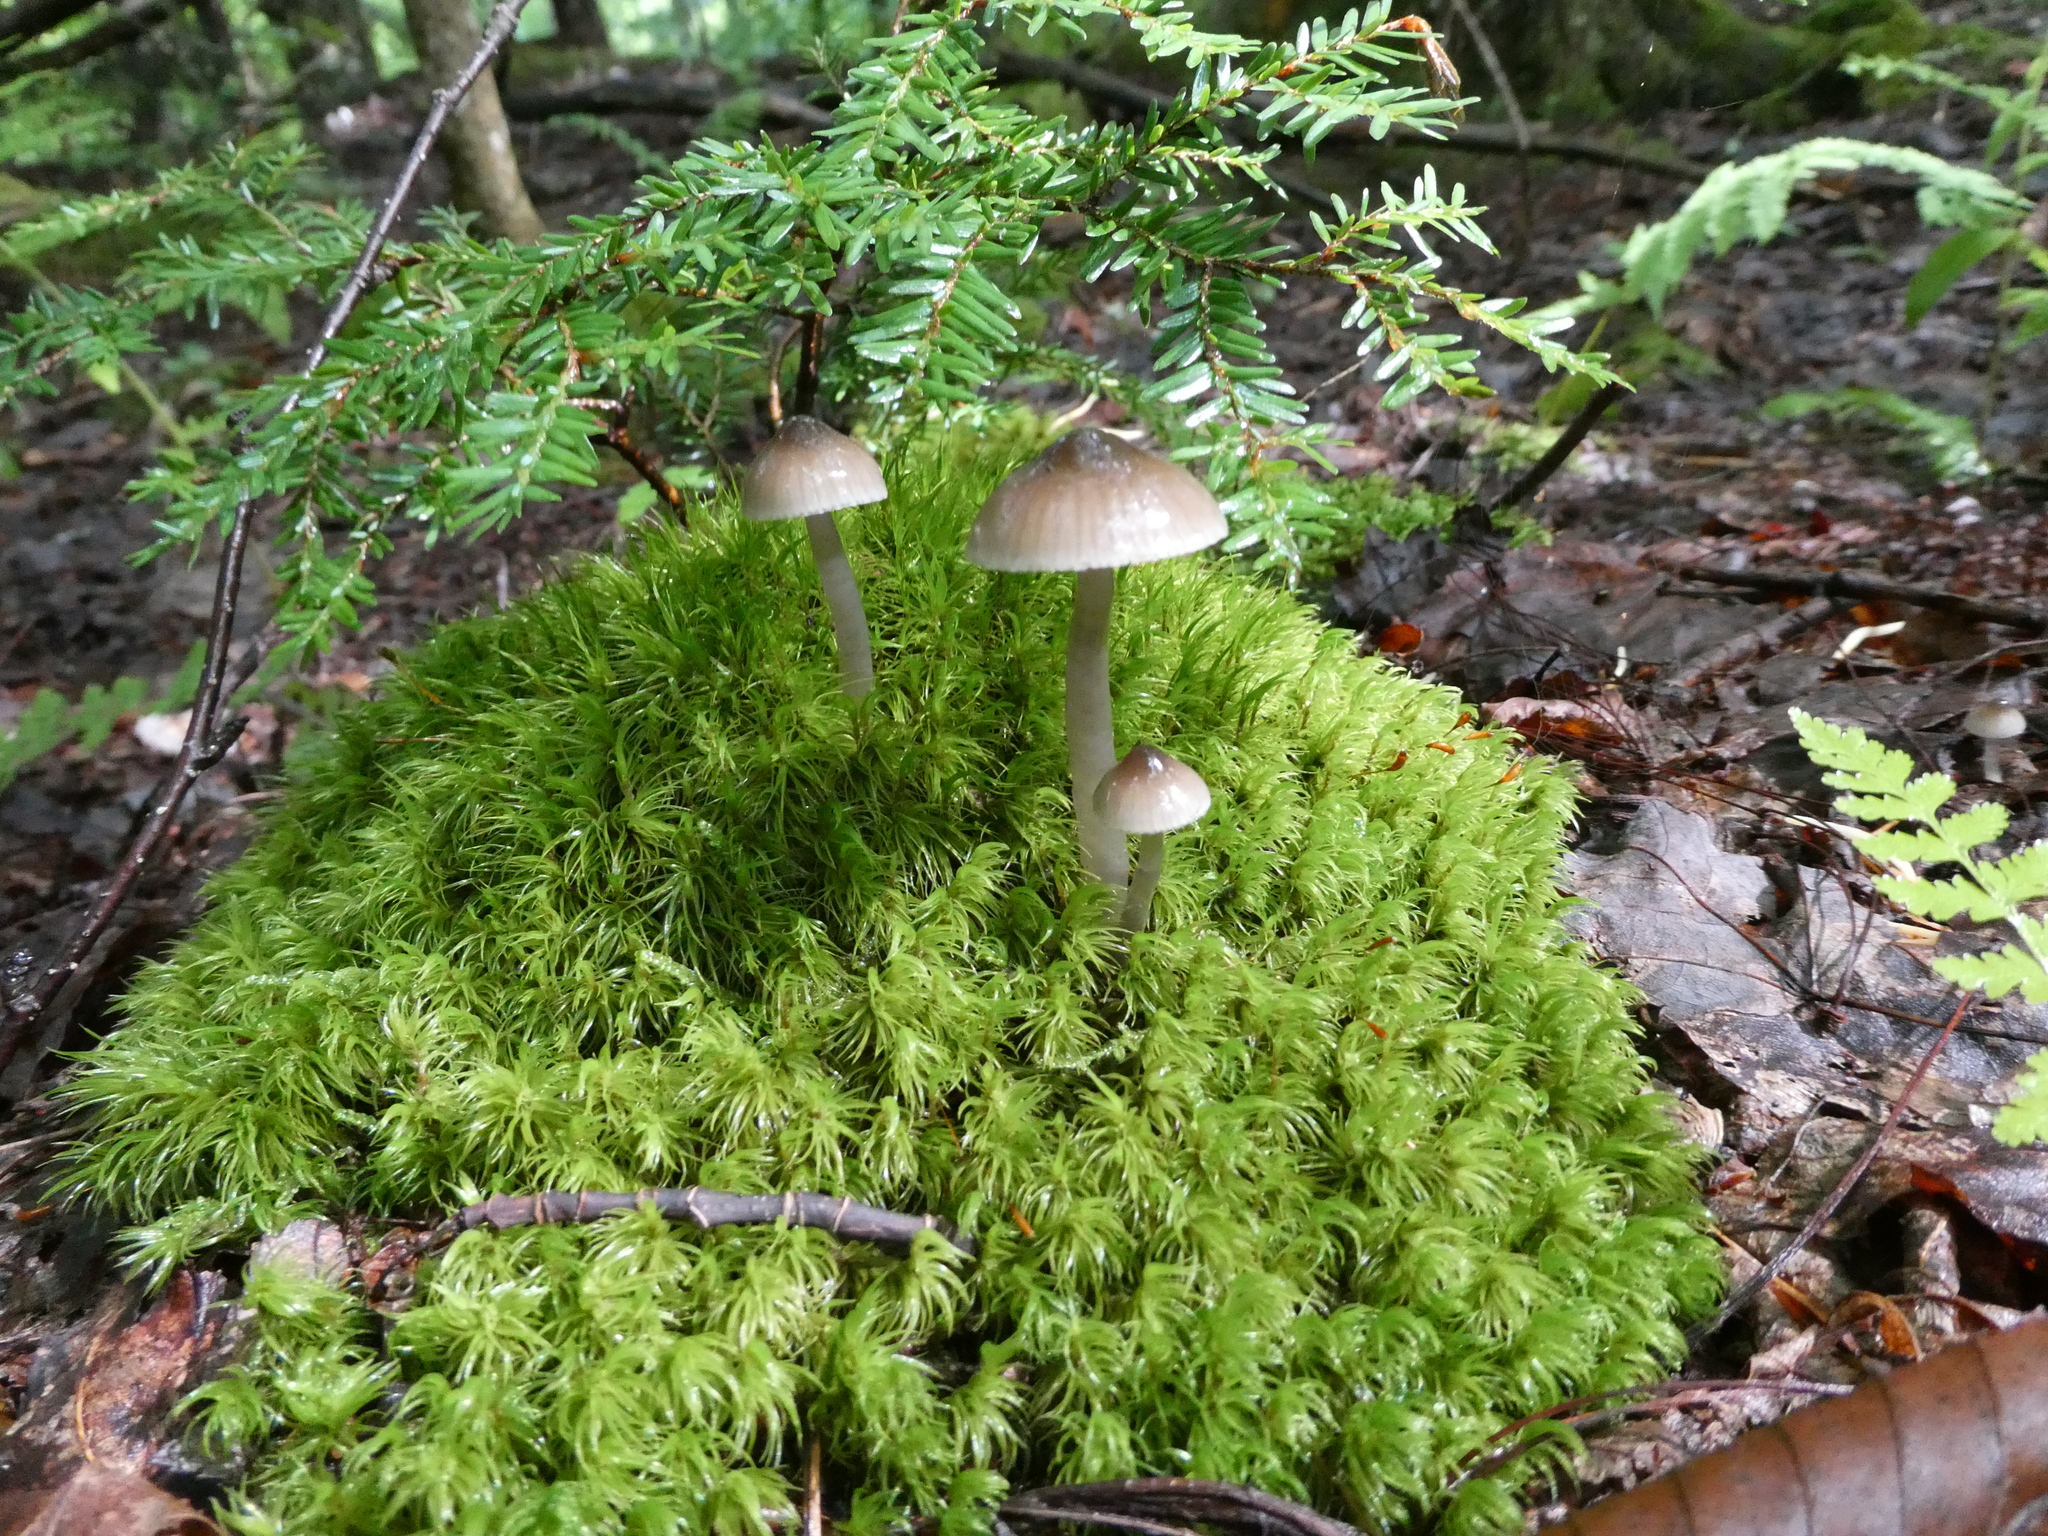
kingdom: Fungi
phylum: Basidiomycota
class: Agaricomycetes
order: Agaricales
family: Hygrophoraceae
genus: Gliophorus
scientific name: Gliophorus irrigatus
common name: Slimy waxcap
